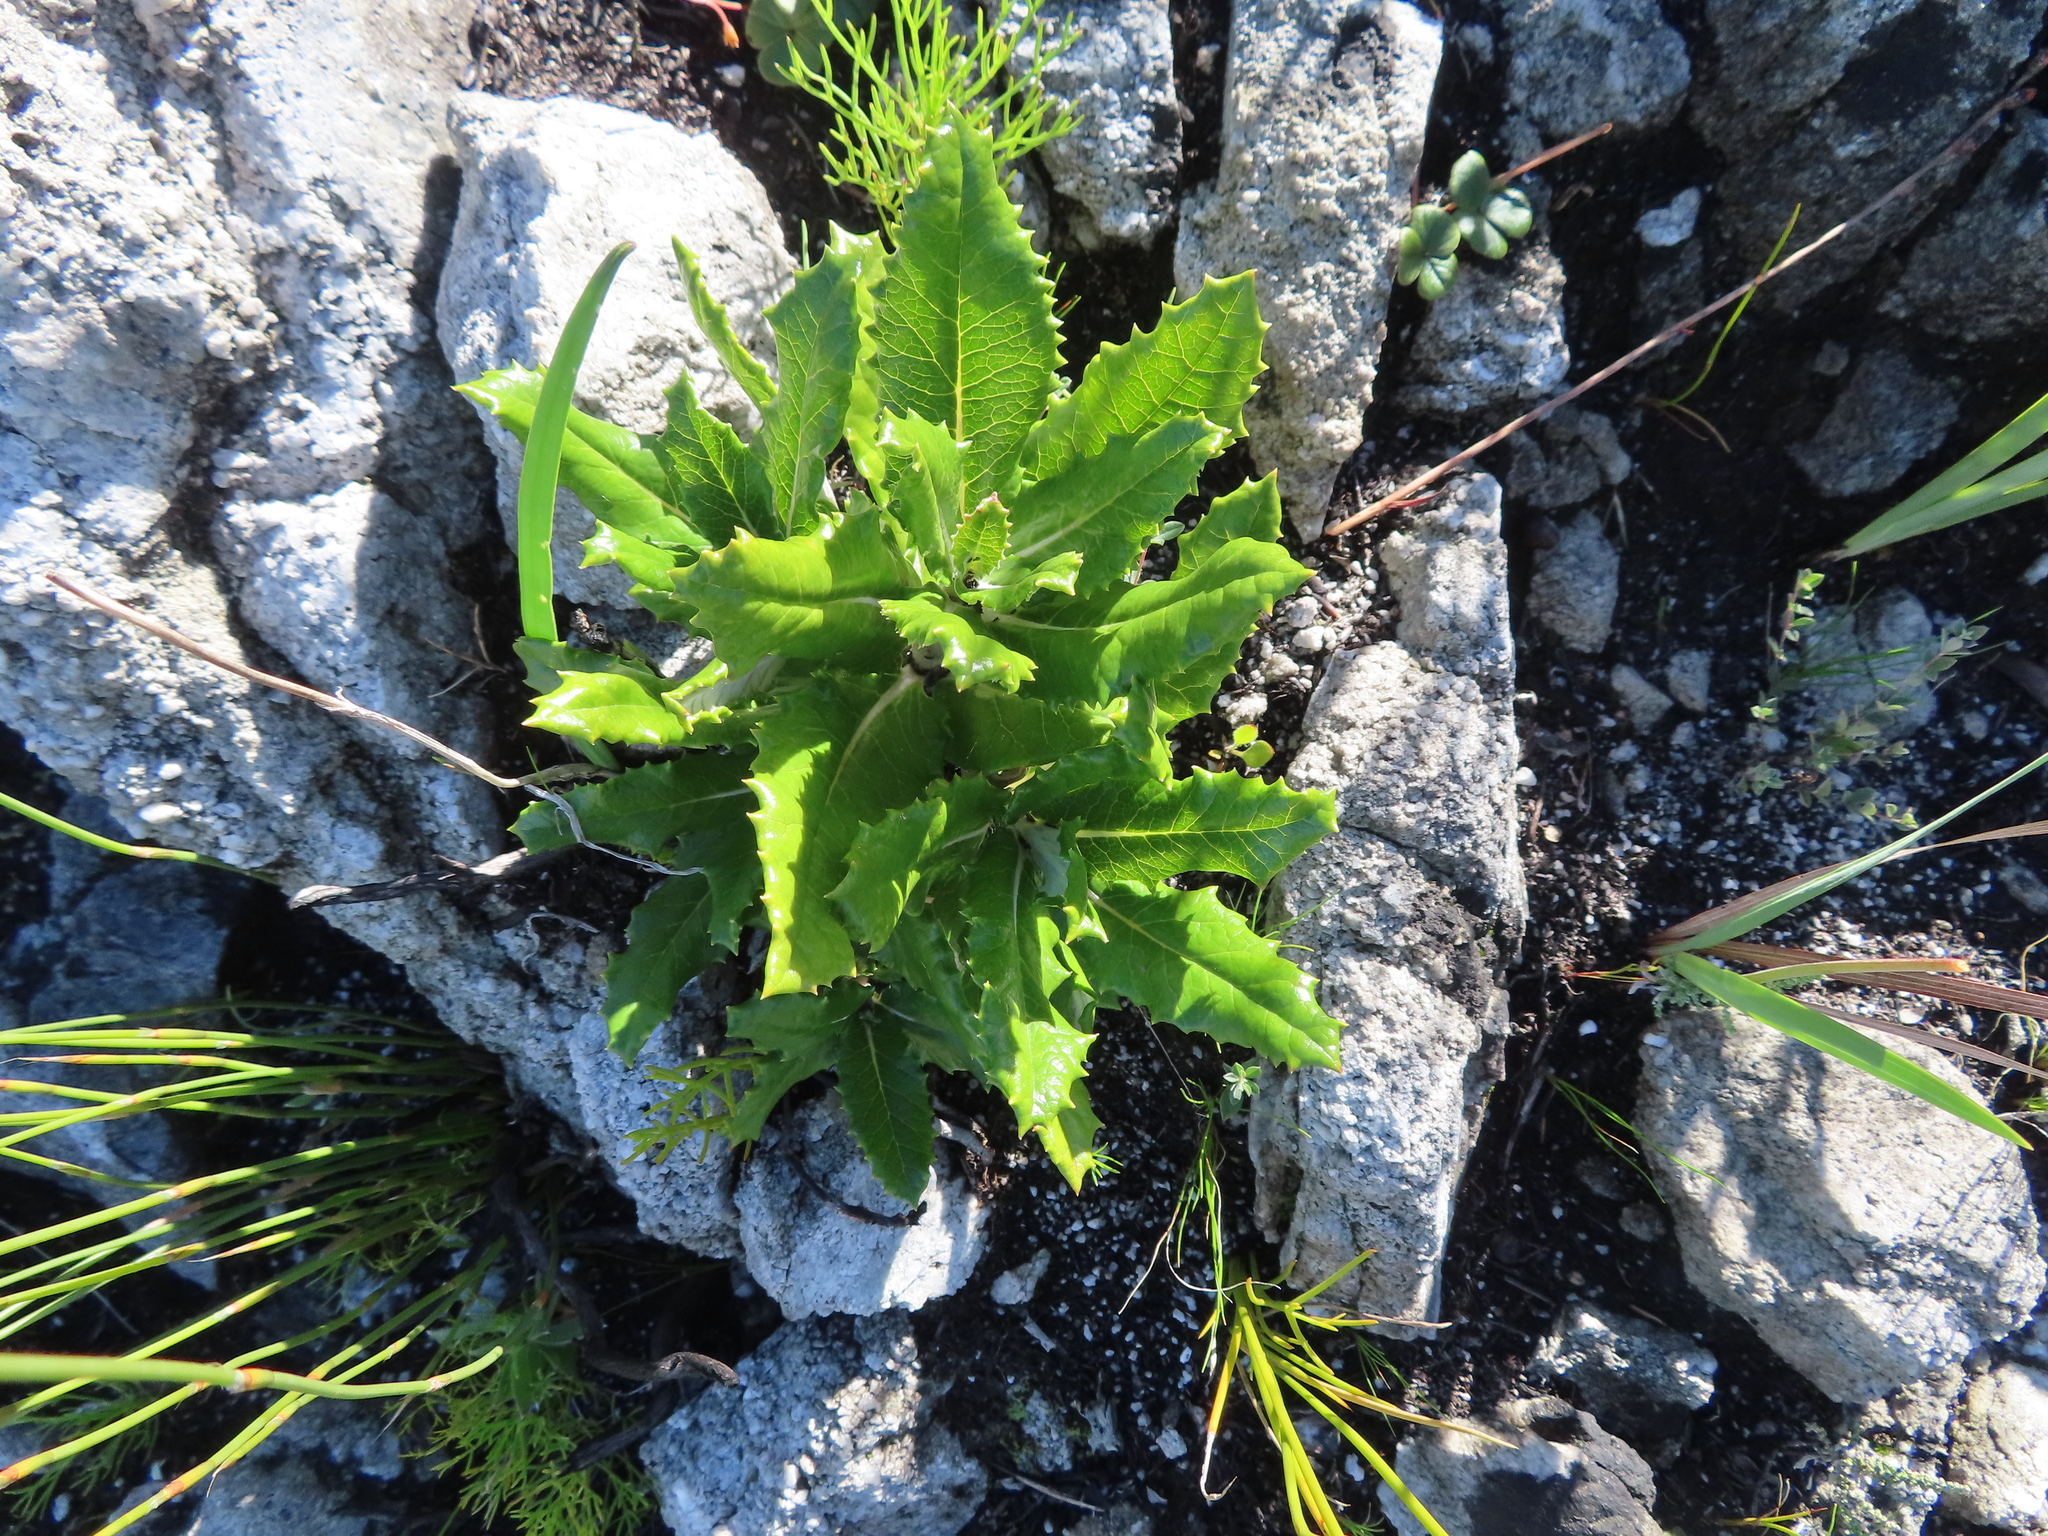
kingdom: Plantae
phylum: Tracheophyta
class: Magnoliopsida
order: Apiales
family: Apiaceae
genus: Hermas
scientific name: Hermas villosa
